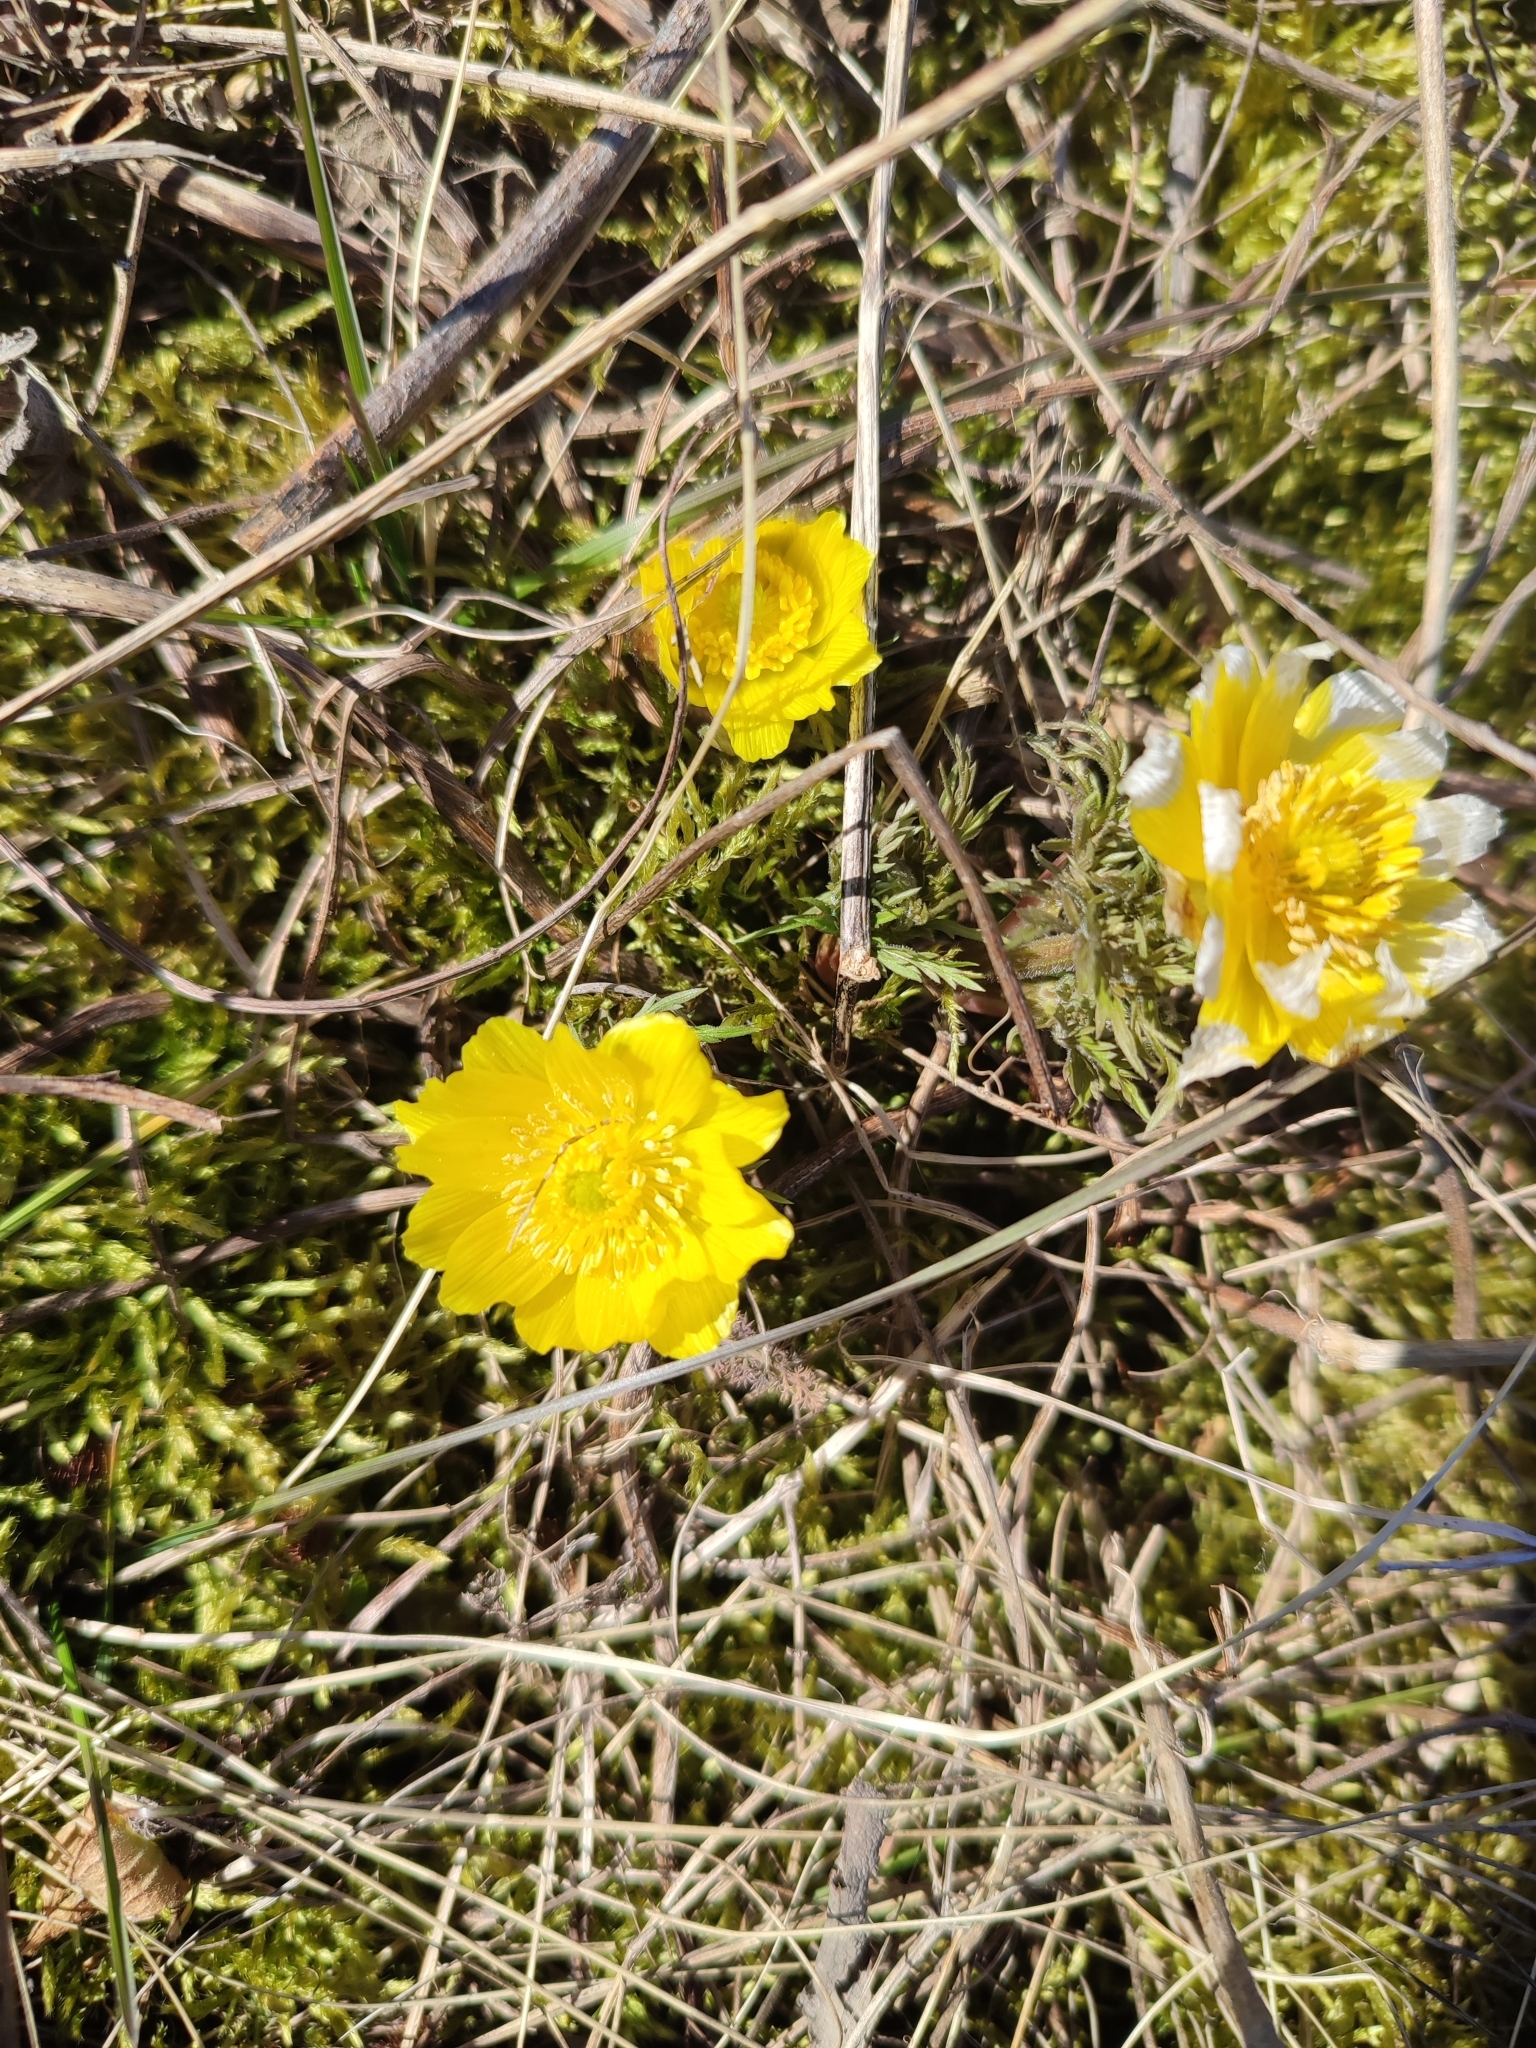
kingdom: Plantae
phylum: Tracheophyta
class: Magnoliopsida
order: Ranunculales
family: Ranunculaceae
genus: Adonis
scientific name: Adonis volgensis
